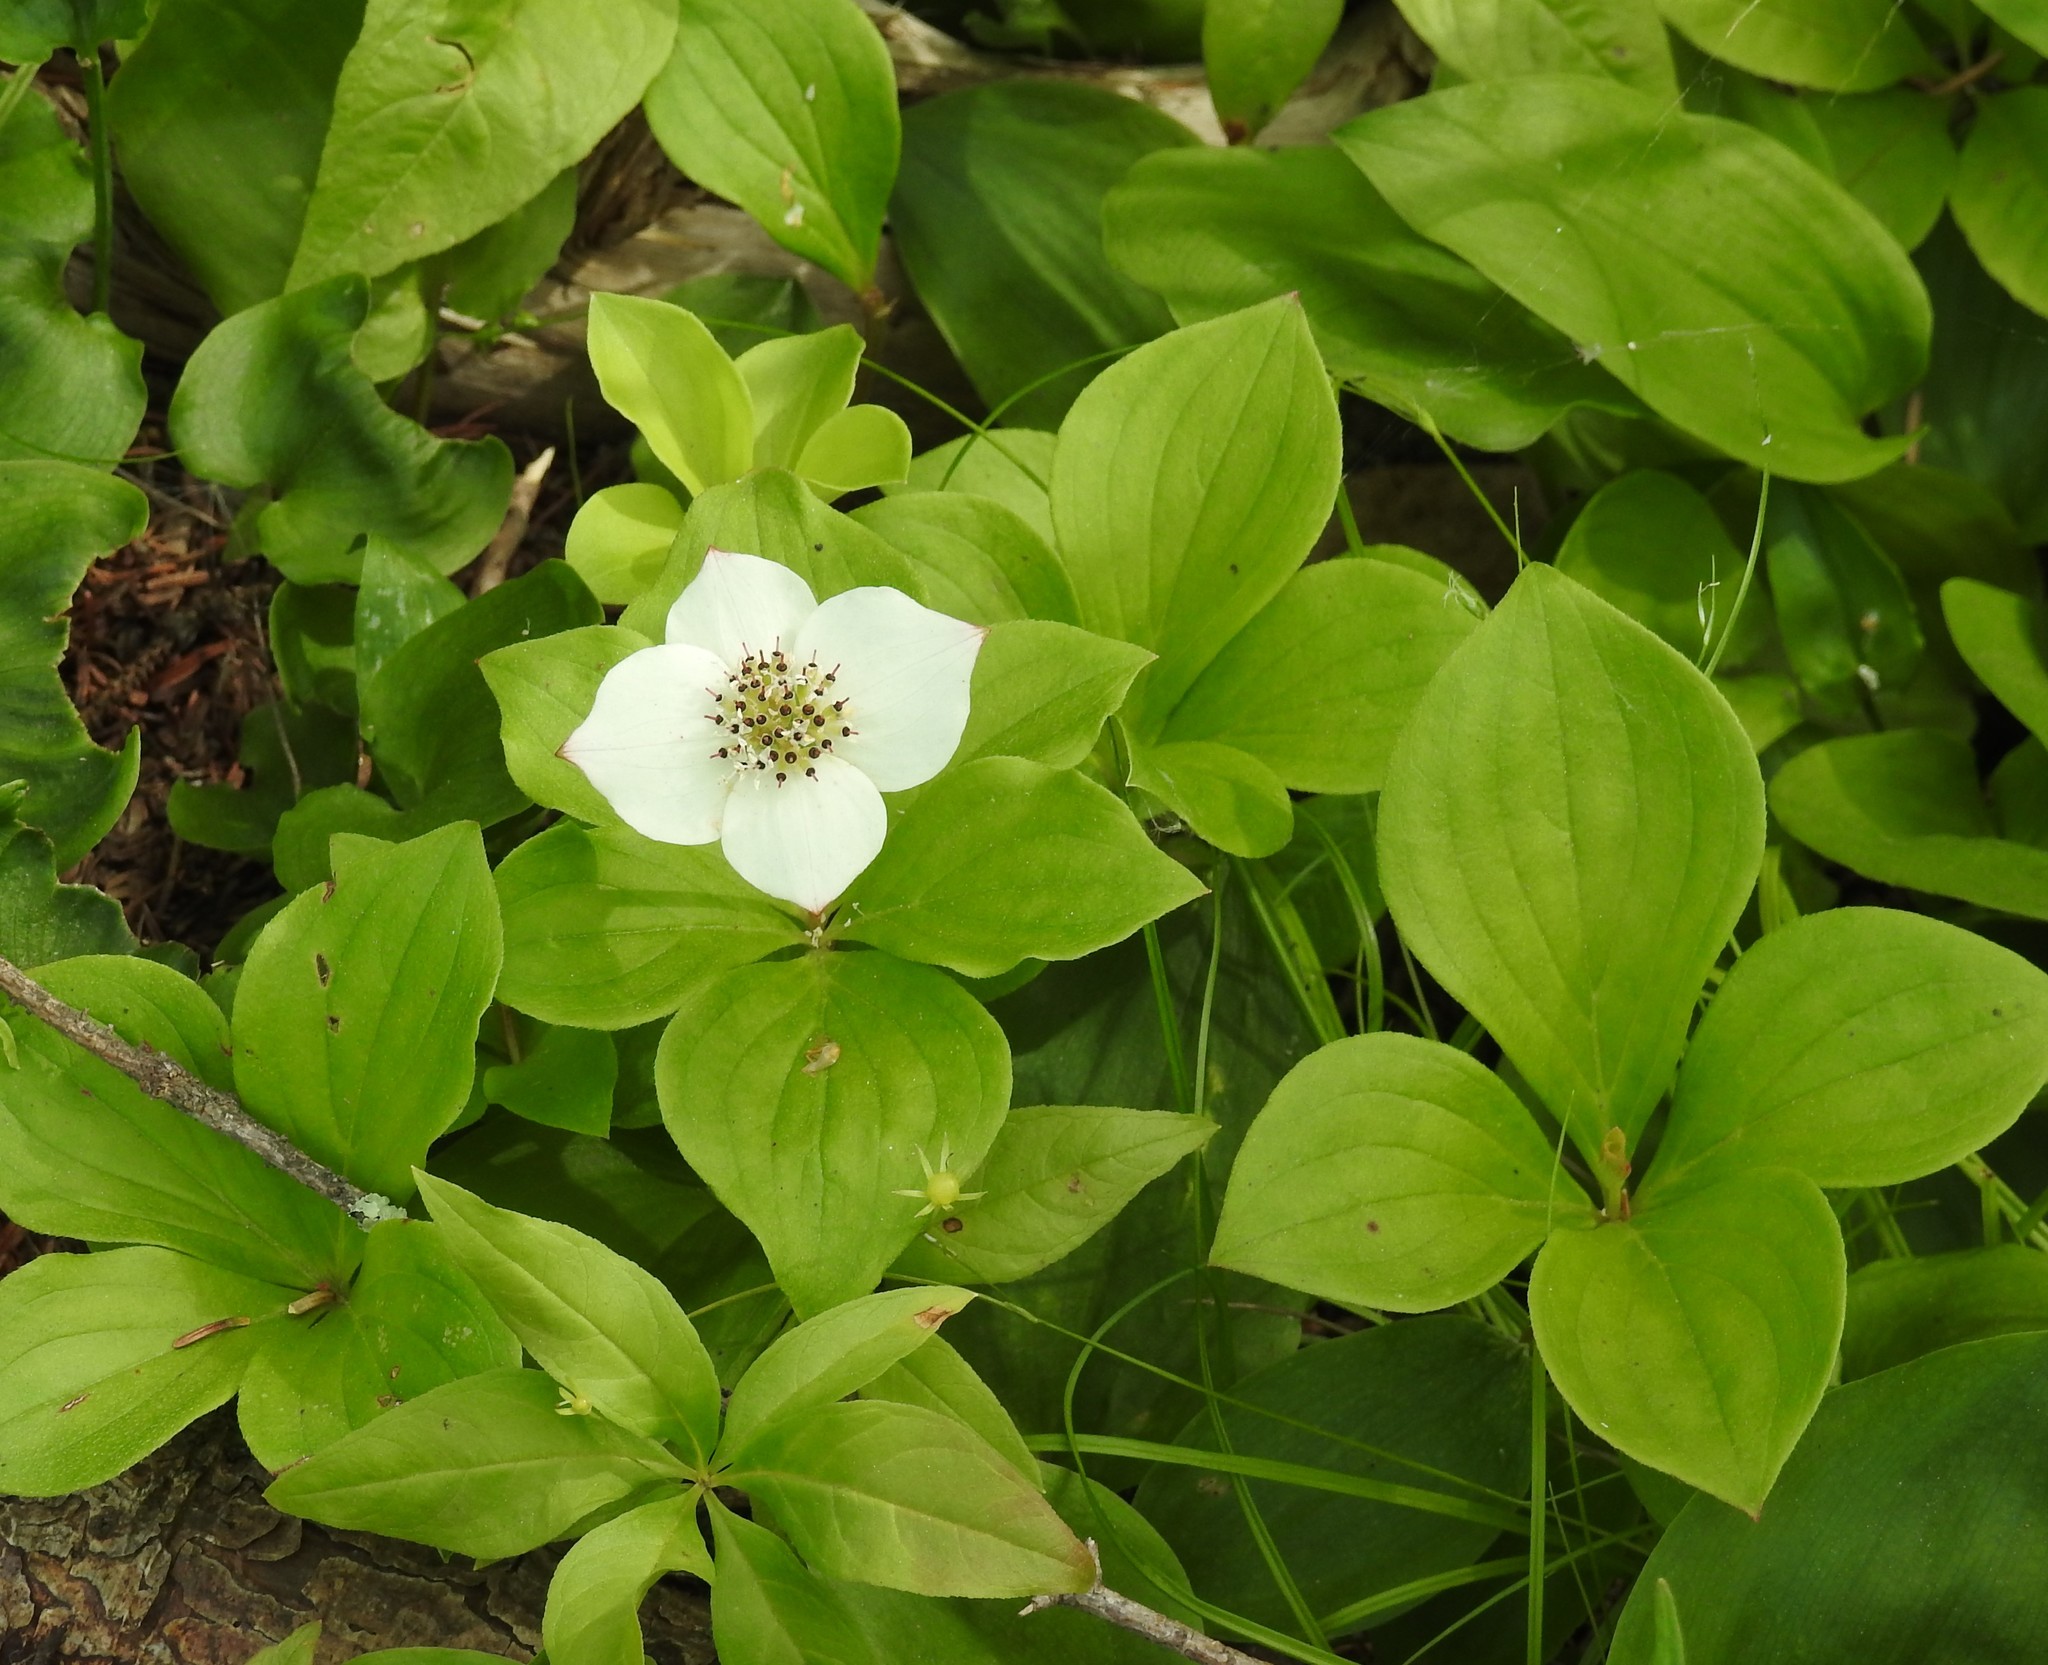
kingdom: Plantae
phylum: Tracheophyta
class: Magnoliopsida
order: Cornales
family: Cornaceae
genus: Cornus
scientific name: Cornus canadensis
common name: Creeping dogwood
